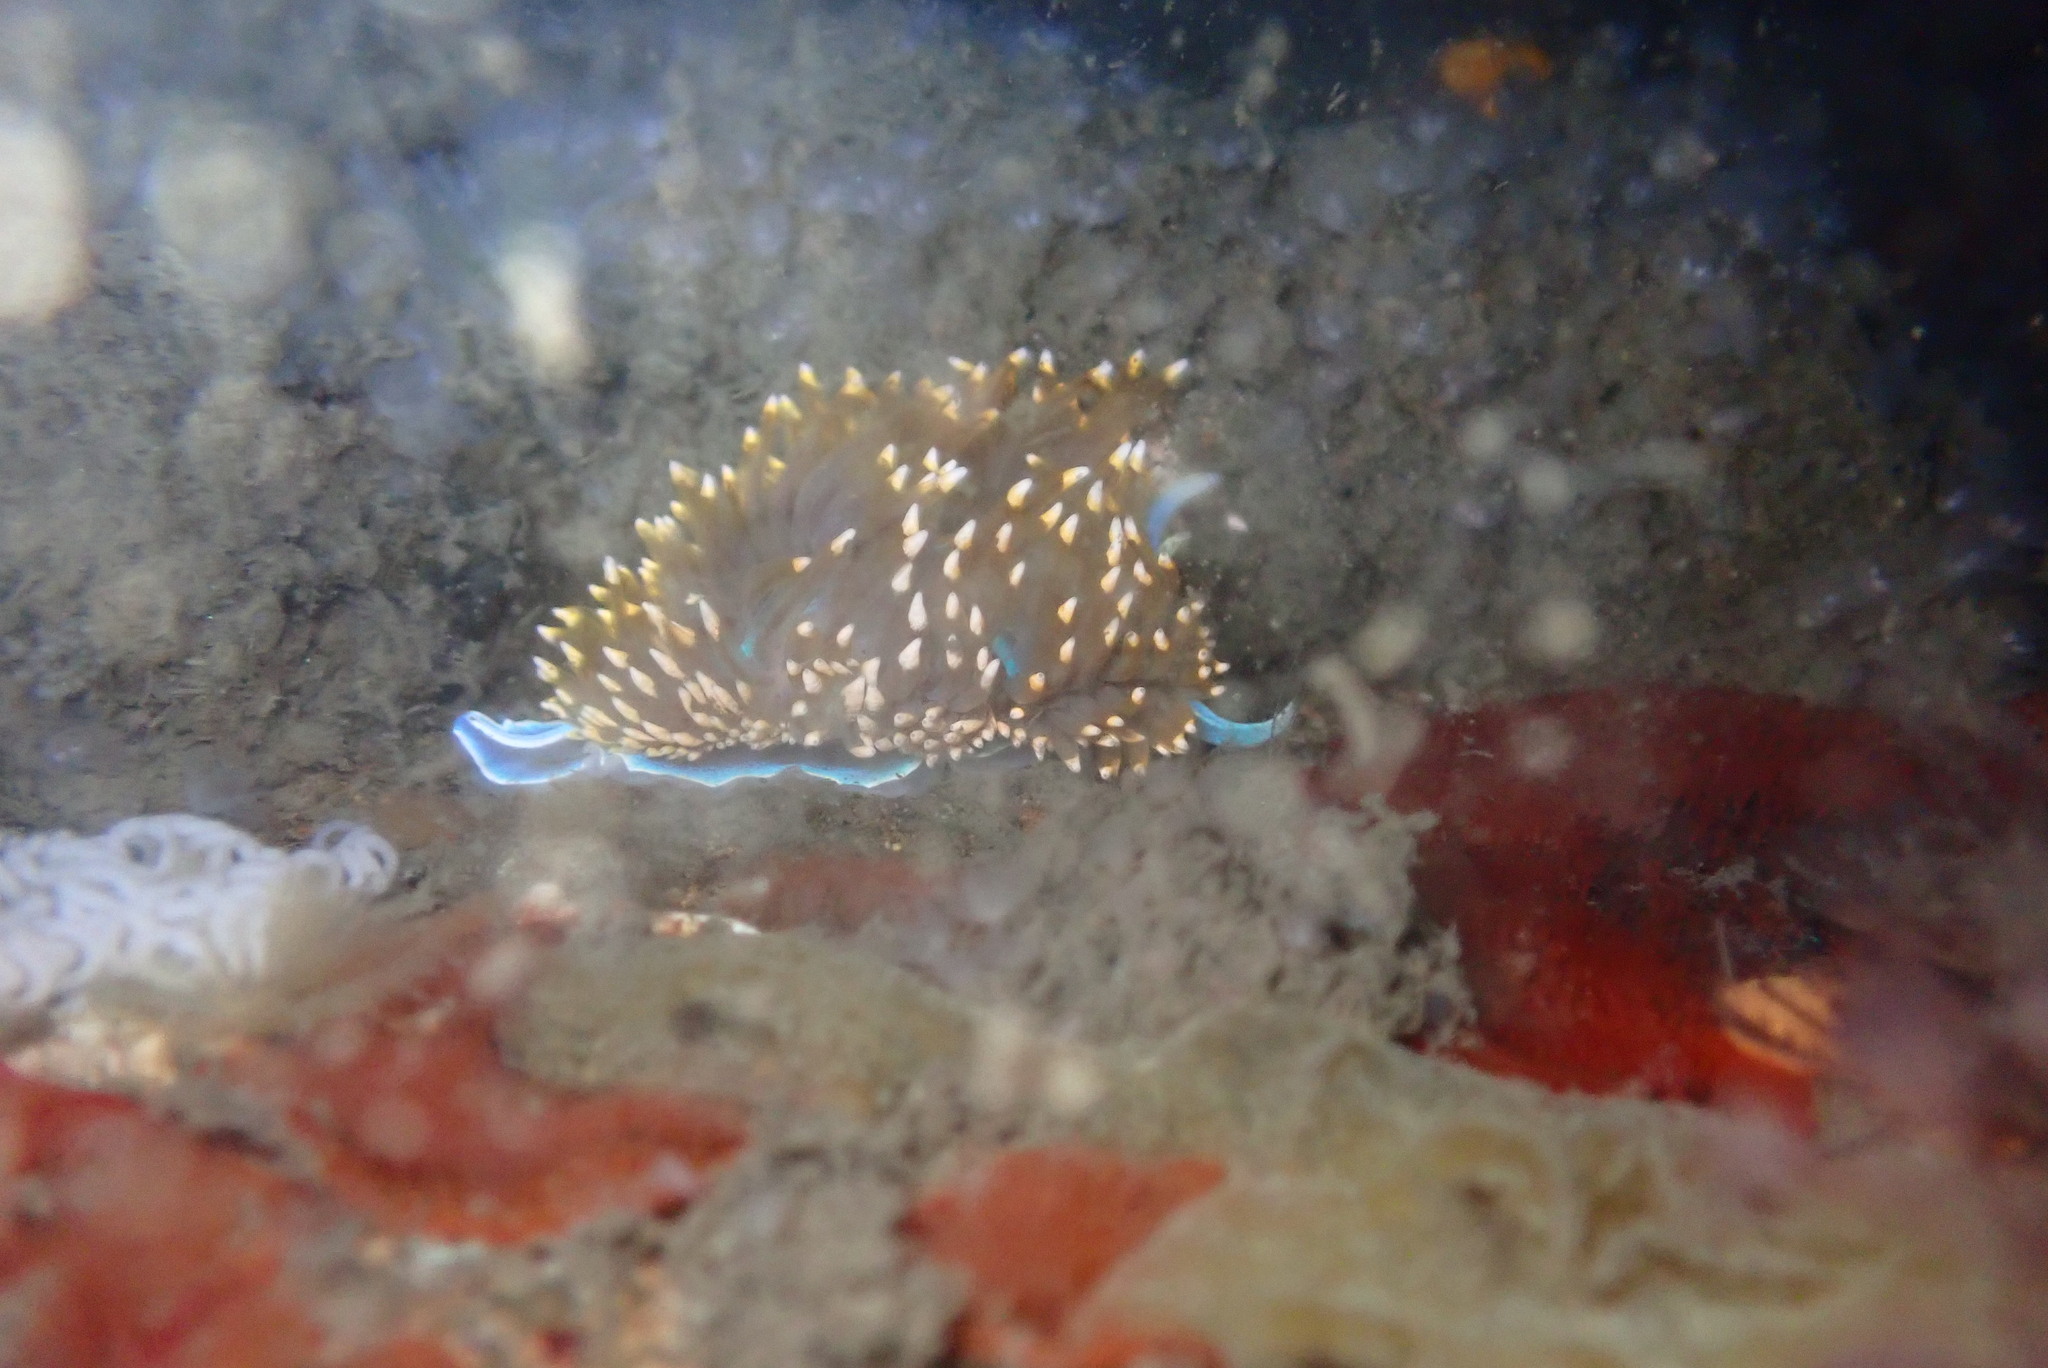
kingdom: Animalia
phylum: Mollusca
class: Gastropoda
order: Nudibranchia
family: Myrrhinidae
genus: Hermissenda
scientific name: Hermissenda opalescens
